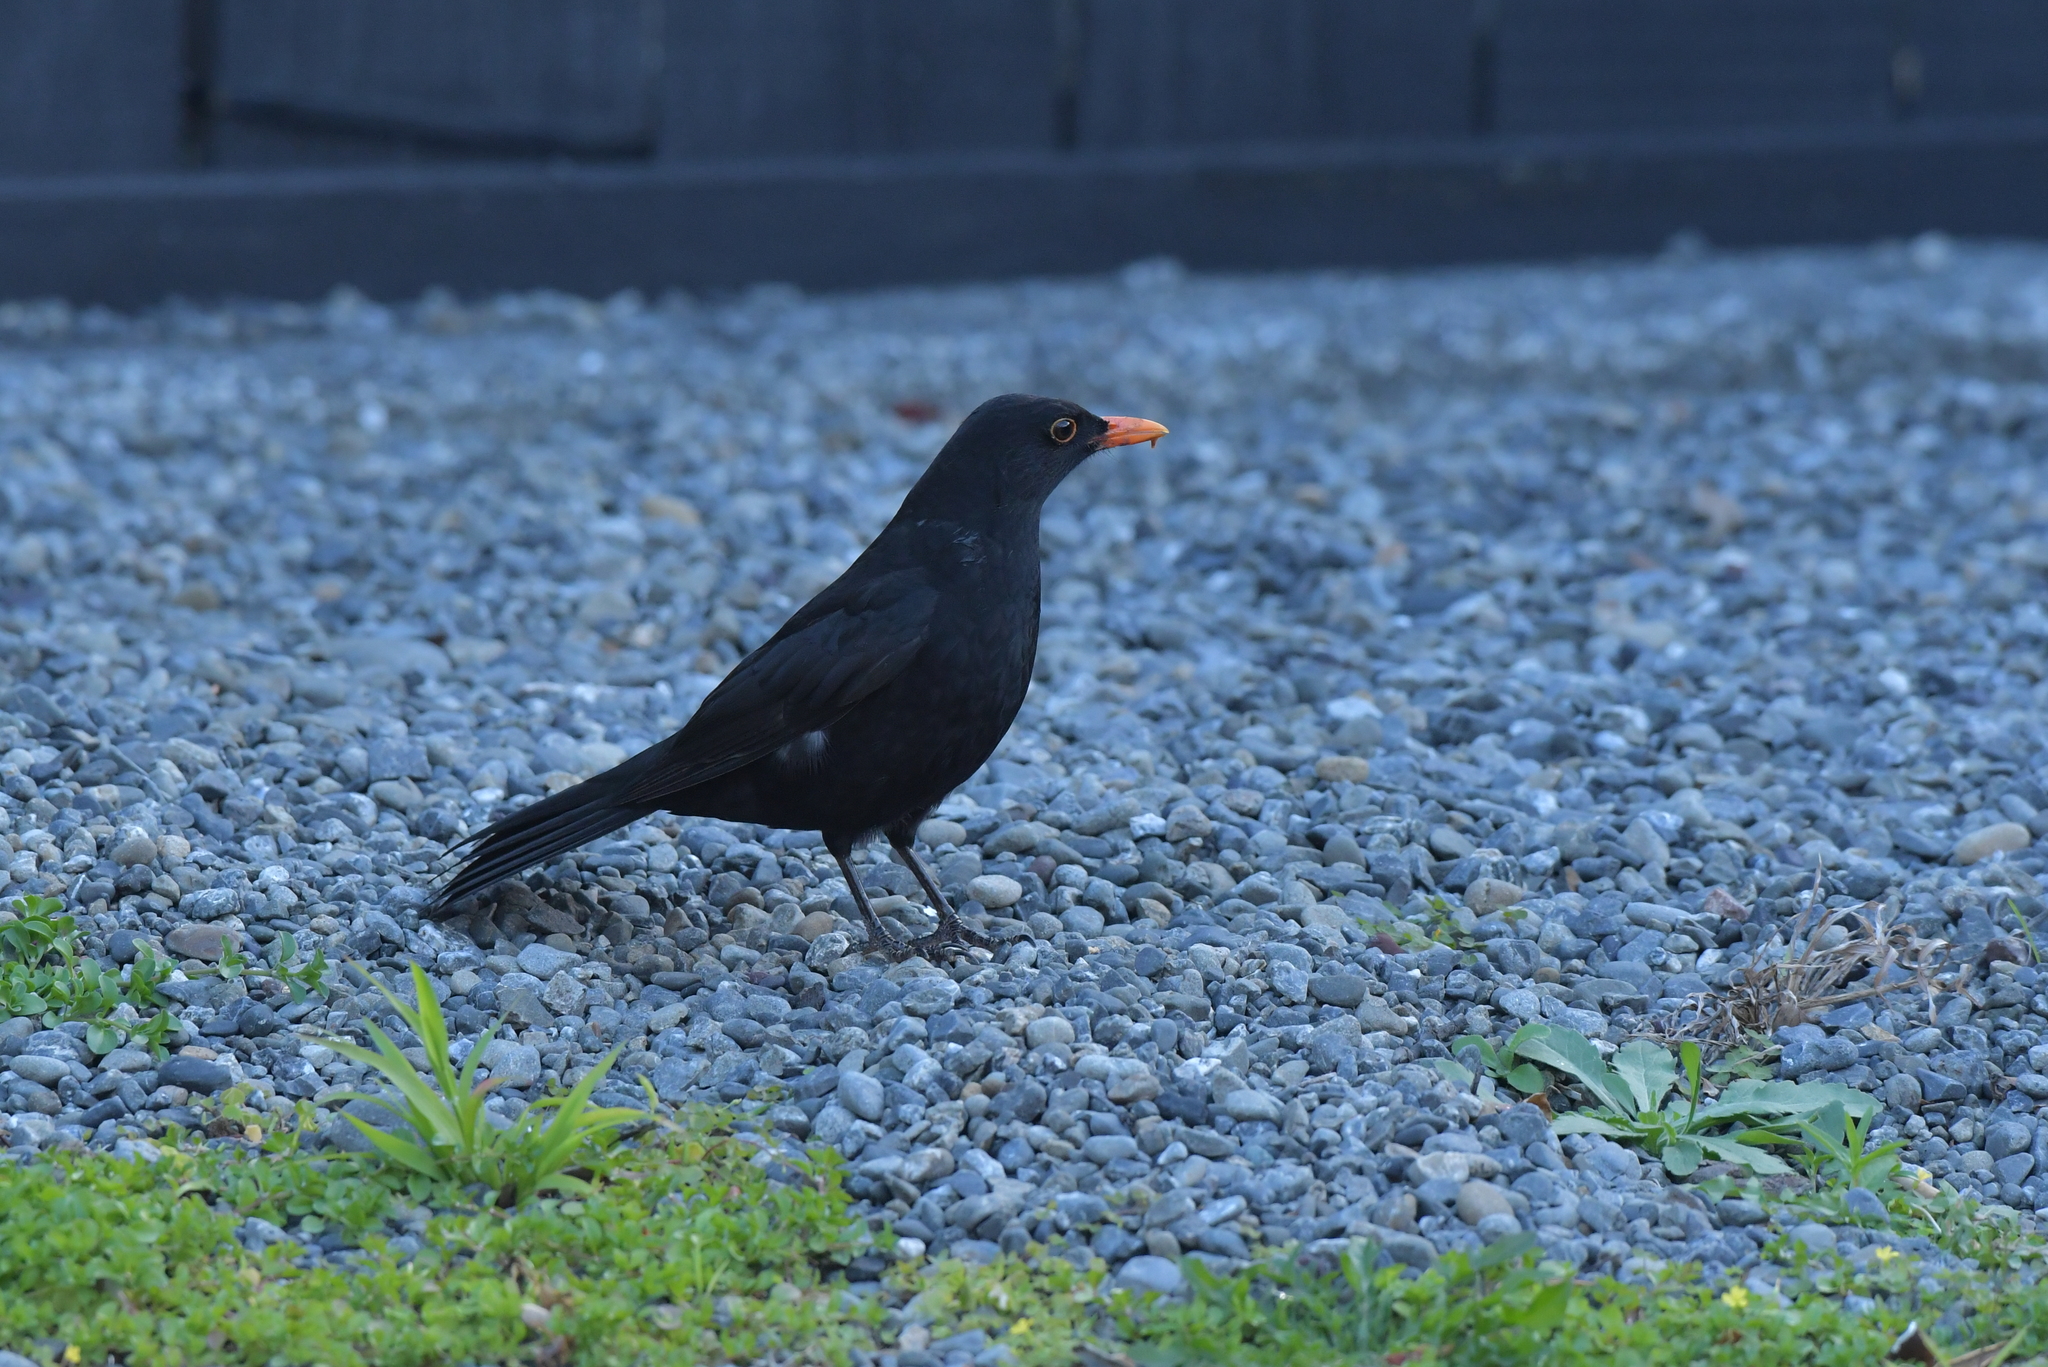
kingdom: Animalia
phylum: Chordata
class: Aves
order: Passeriformes
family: Turdidae
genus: Turdus
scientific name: Turdus merula
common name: Common blackbird
